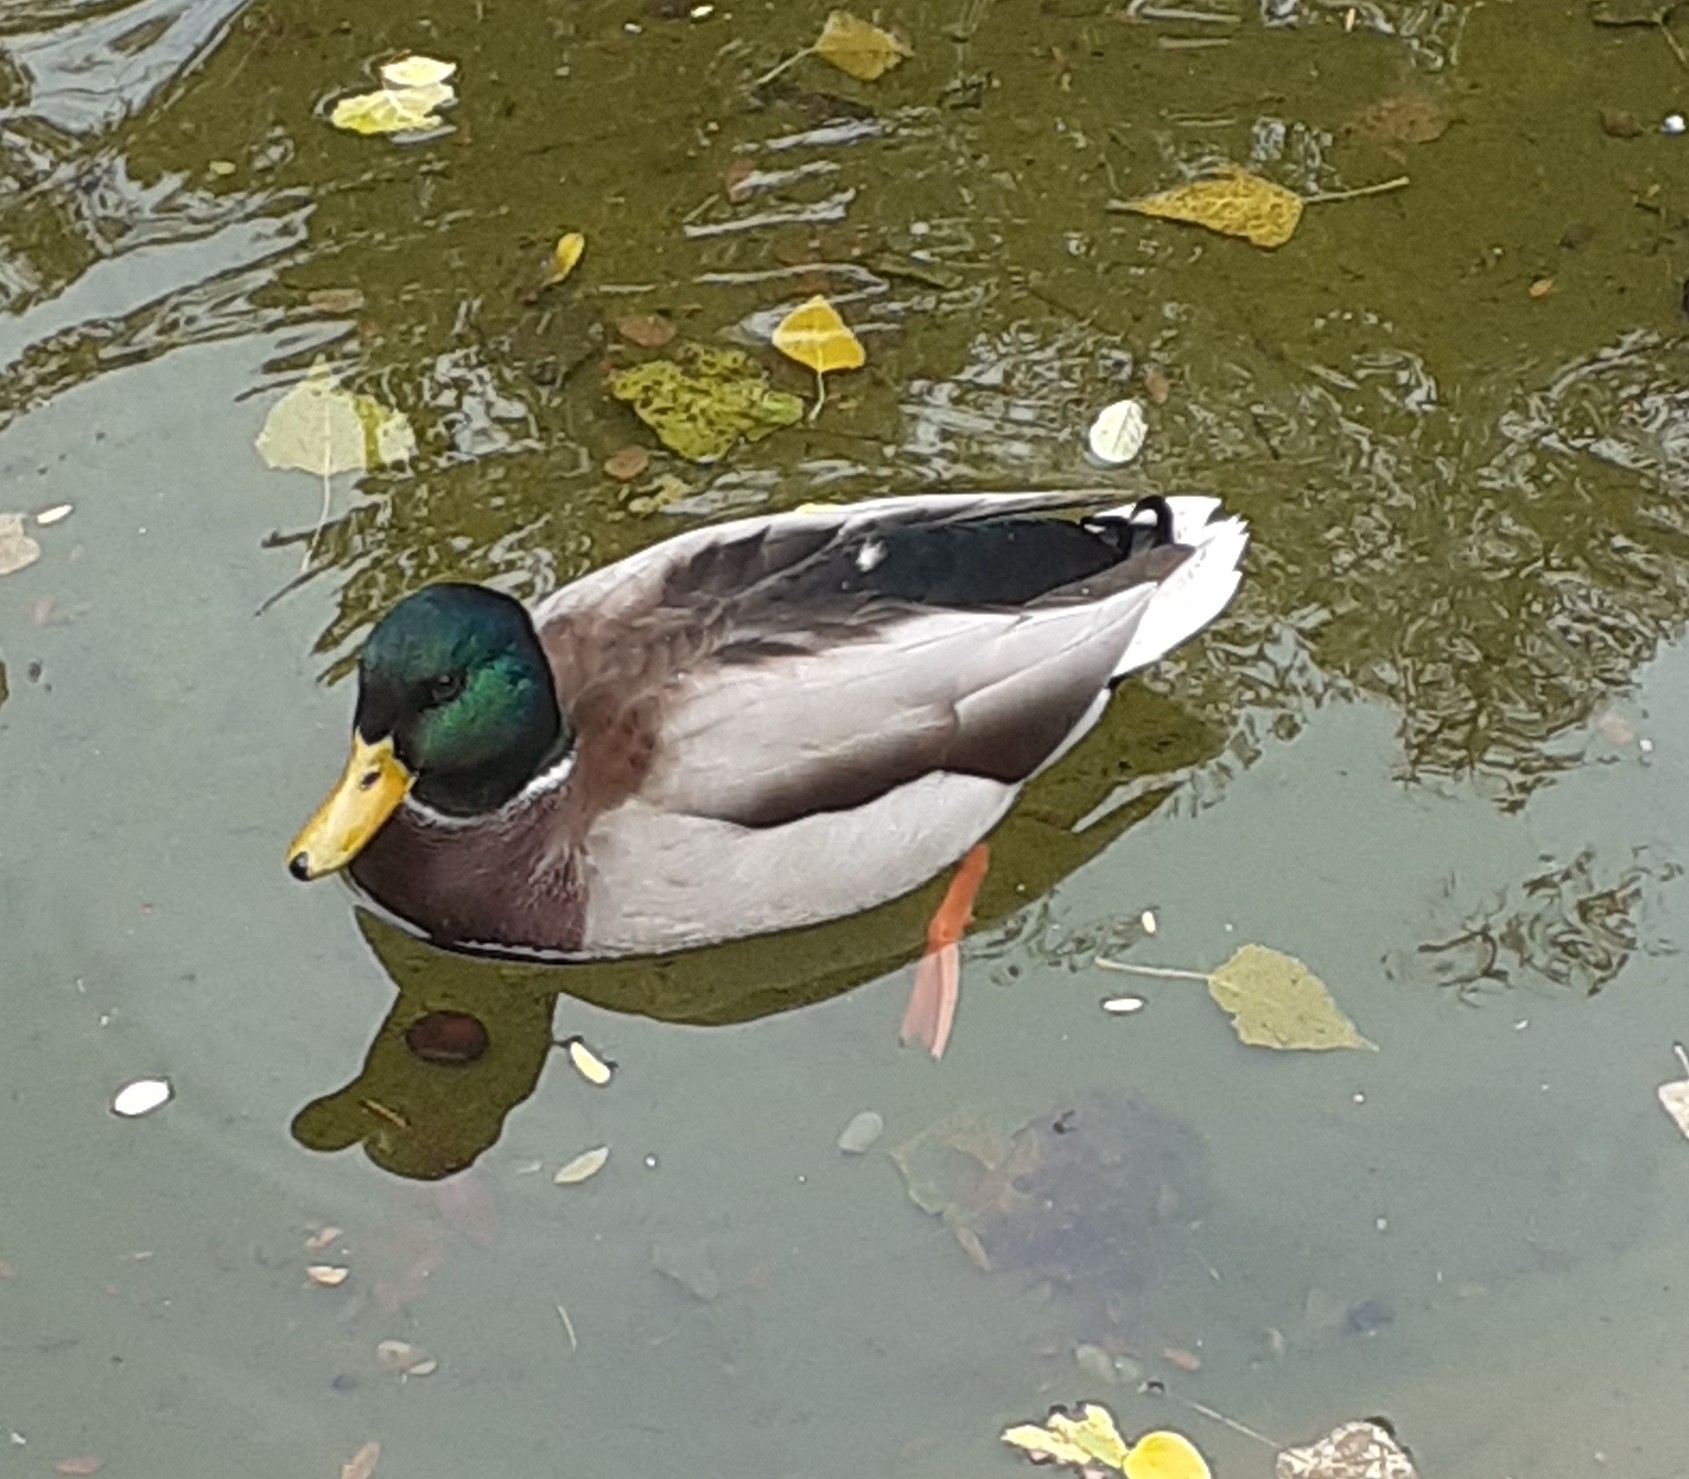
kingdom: Animalia
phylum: Chordata
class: Aves
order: Anseriformes
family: Anatidae
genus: Anas
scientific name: Anas platyrhynchos
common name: Mallard
